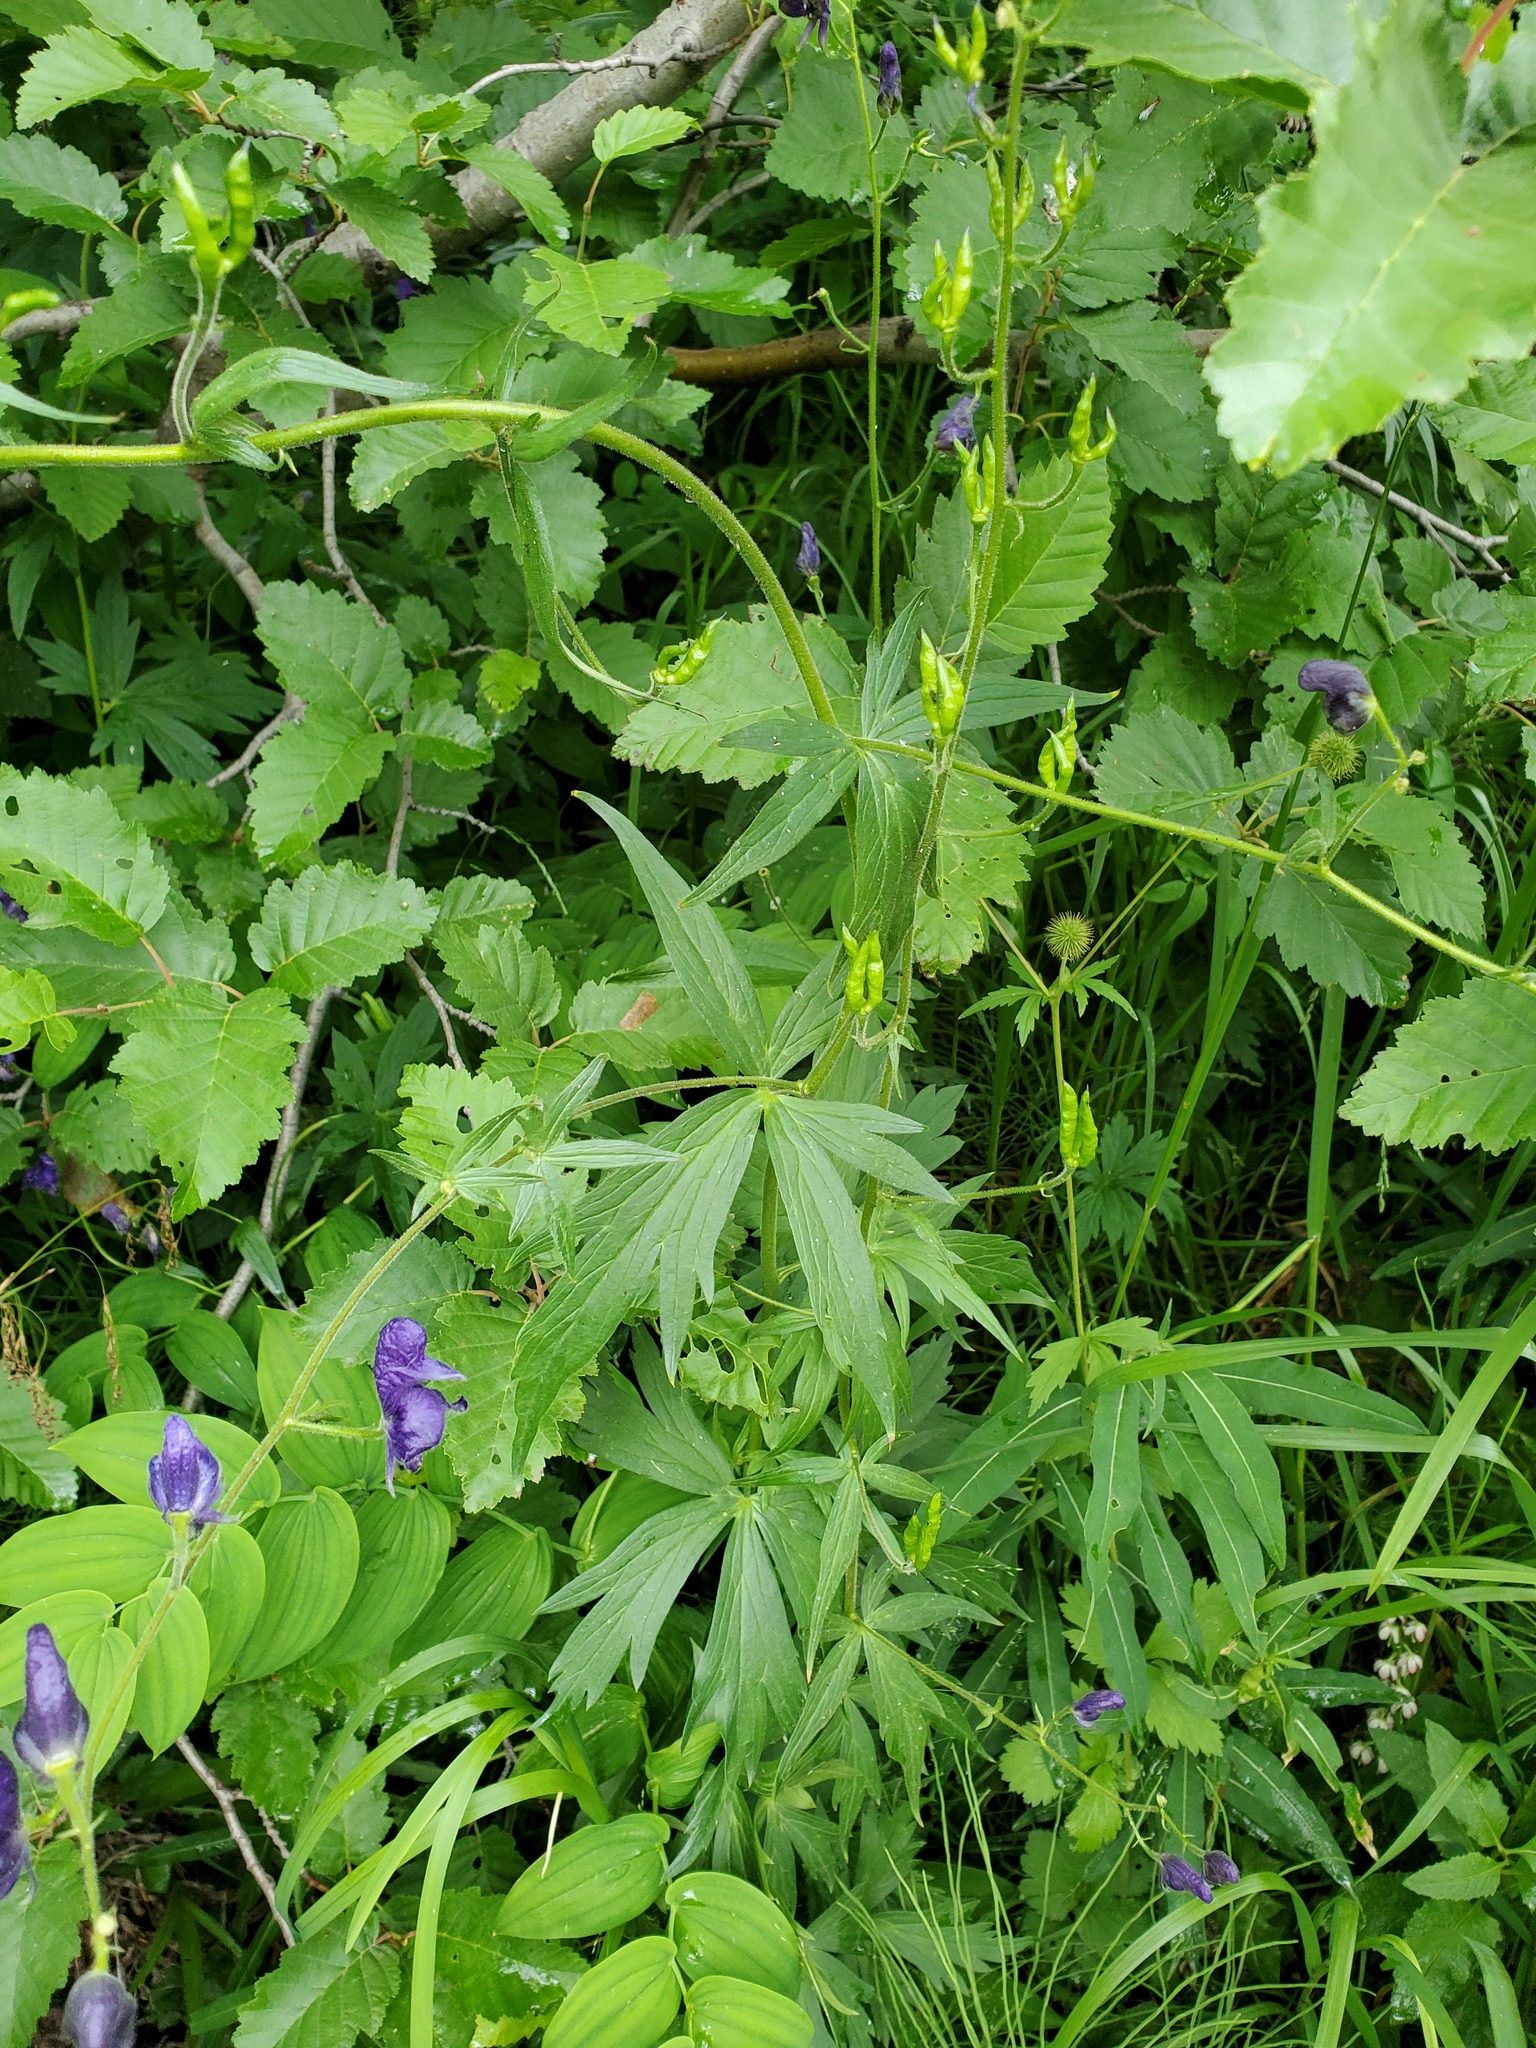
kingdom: Plantae
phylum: Tracheophyta
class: Magnoliopsida
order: Ranunculales
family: Ranunculaceae
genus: Aconitum
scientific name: Aconitum columbianum
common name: Columbia aconite
